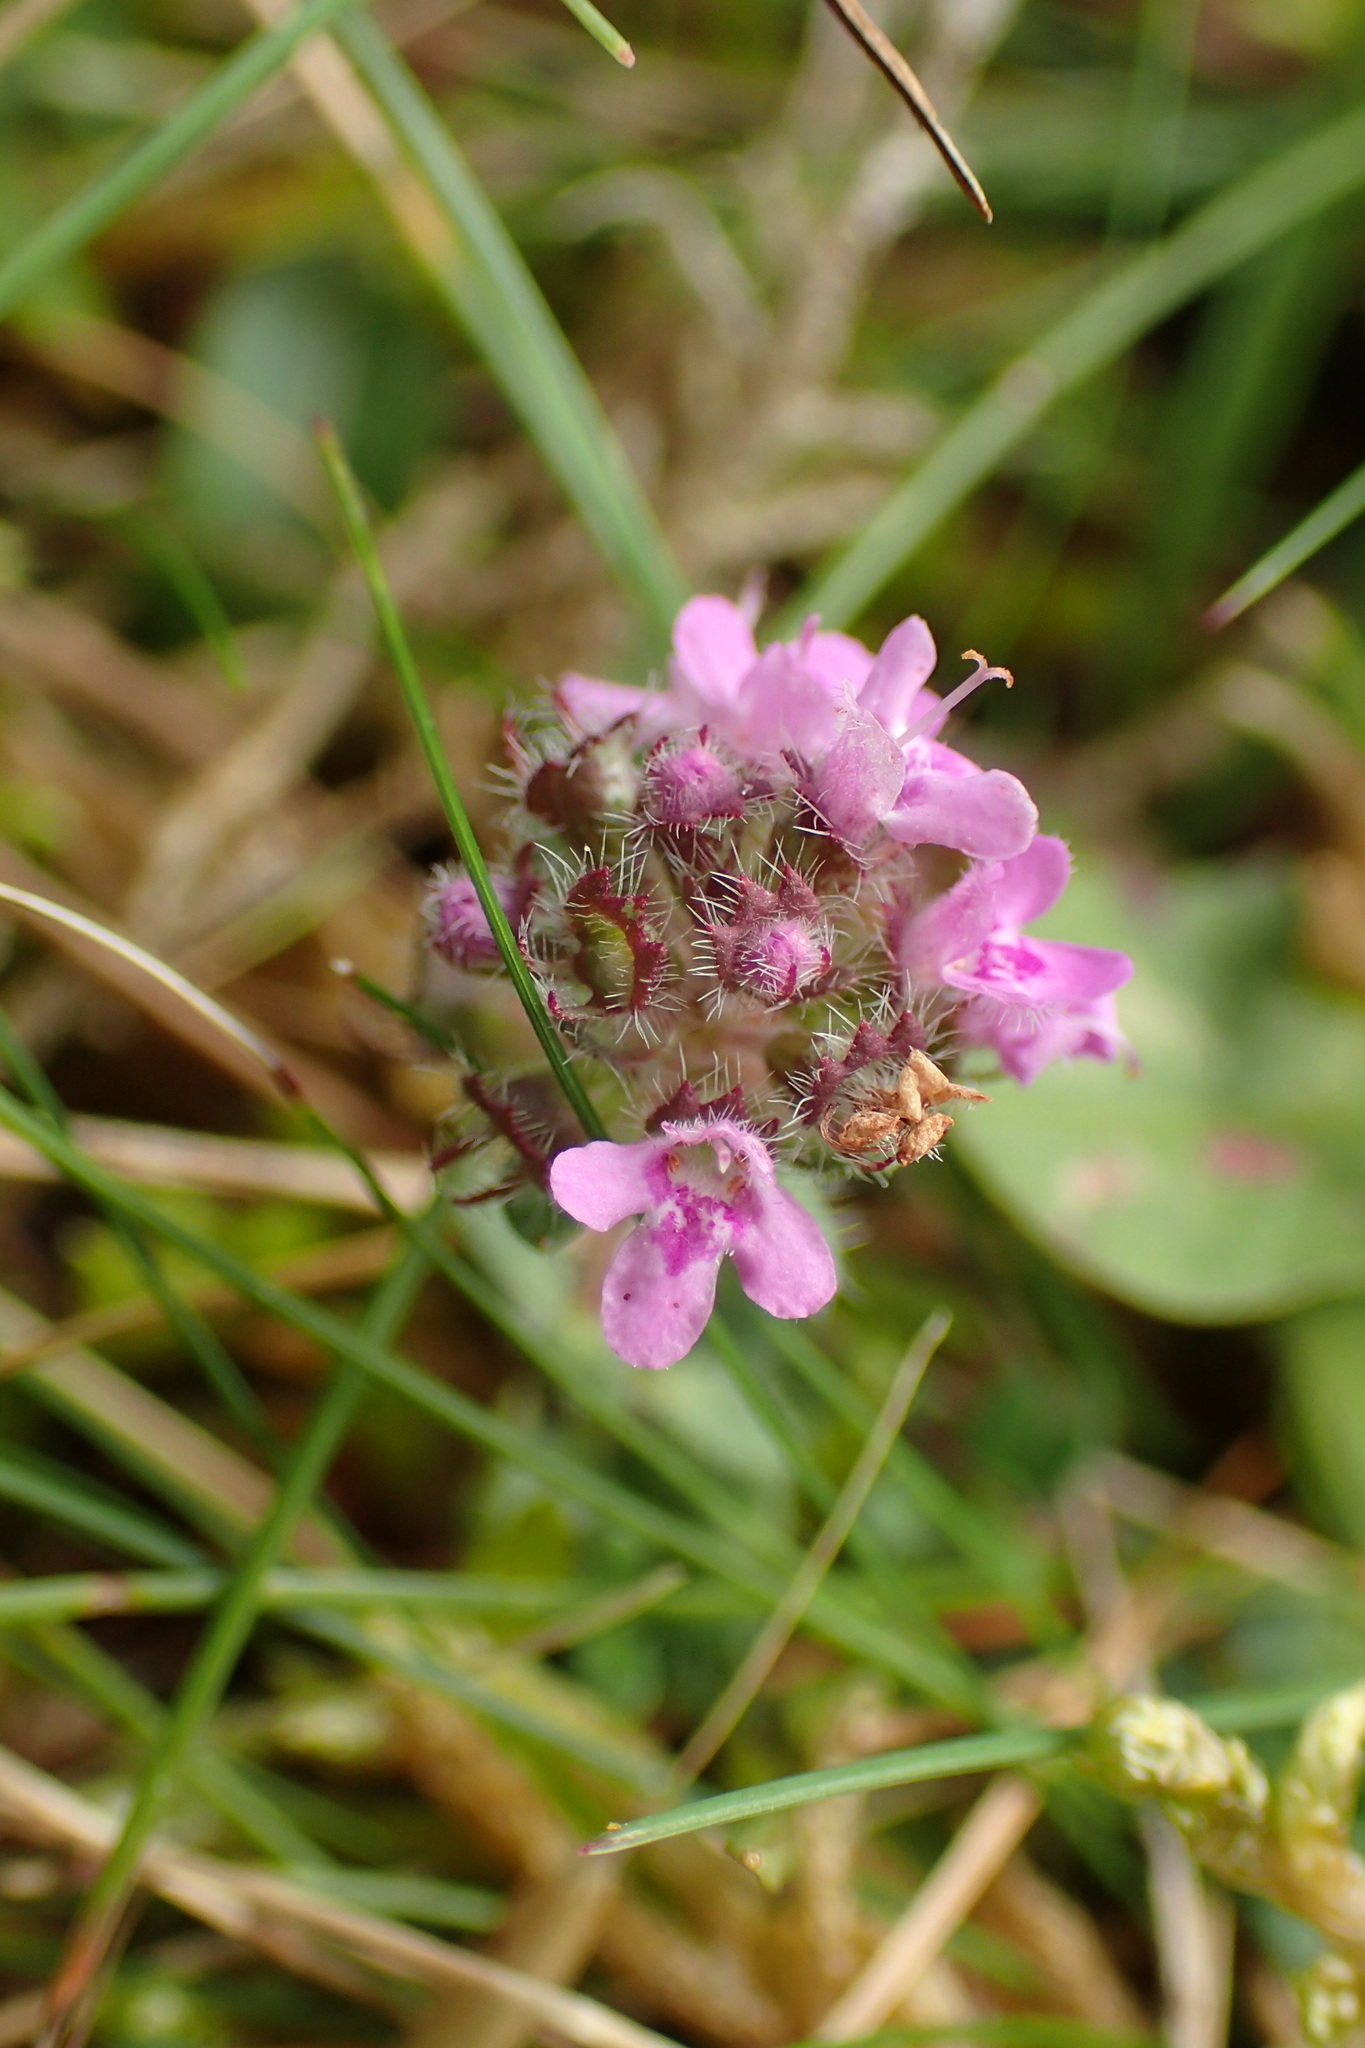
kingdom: Plantae
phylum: Tracheophyta
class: Magnoliopsida
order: Lamiales
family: Lamiaceae
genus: Thymus
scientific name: Thymus praecox
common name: Wild thyme
